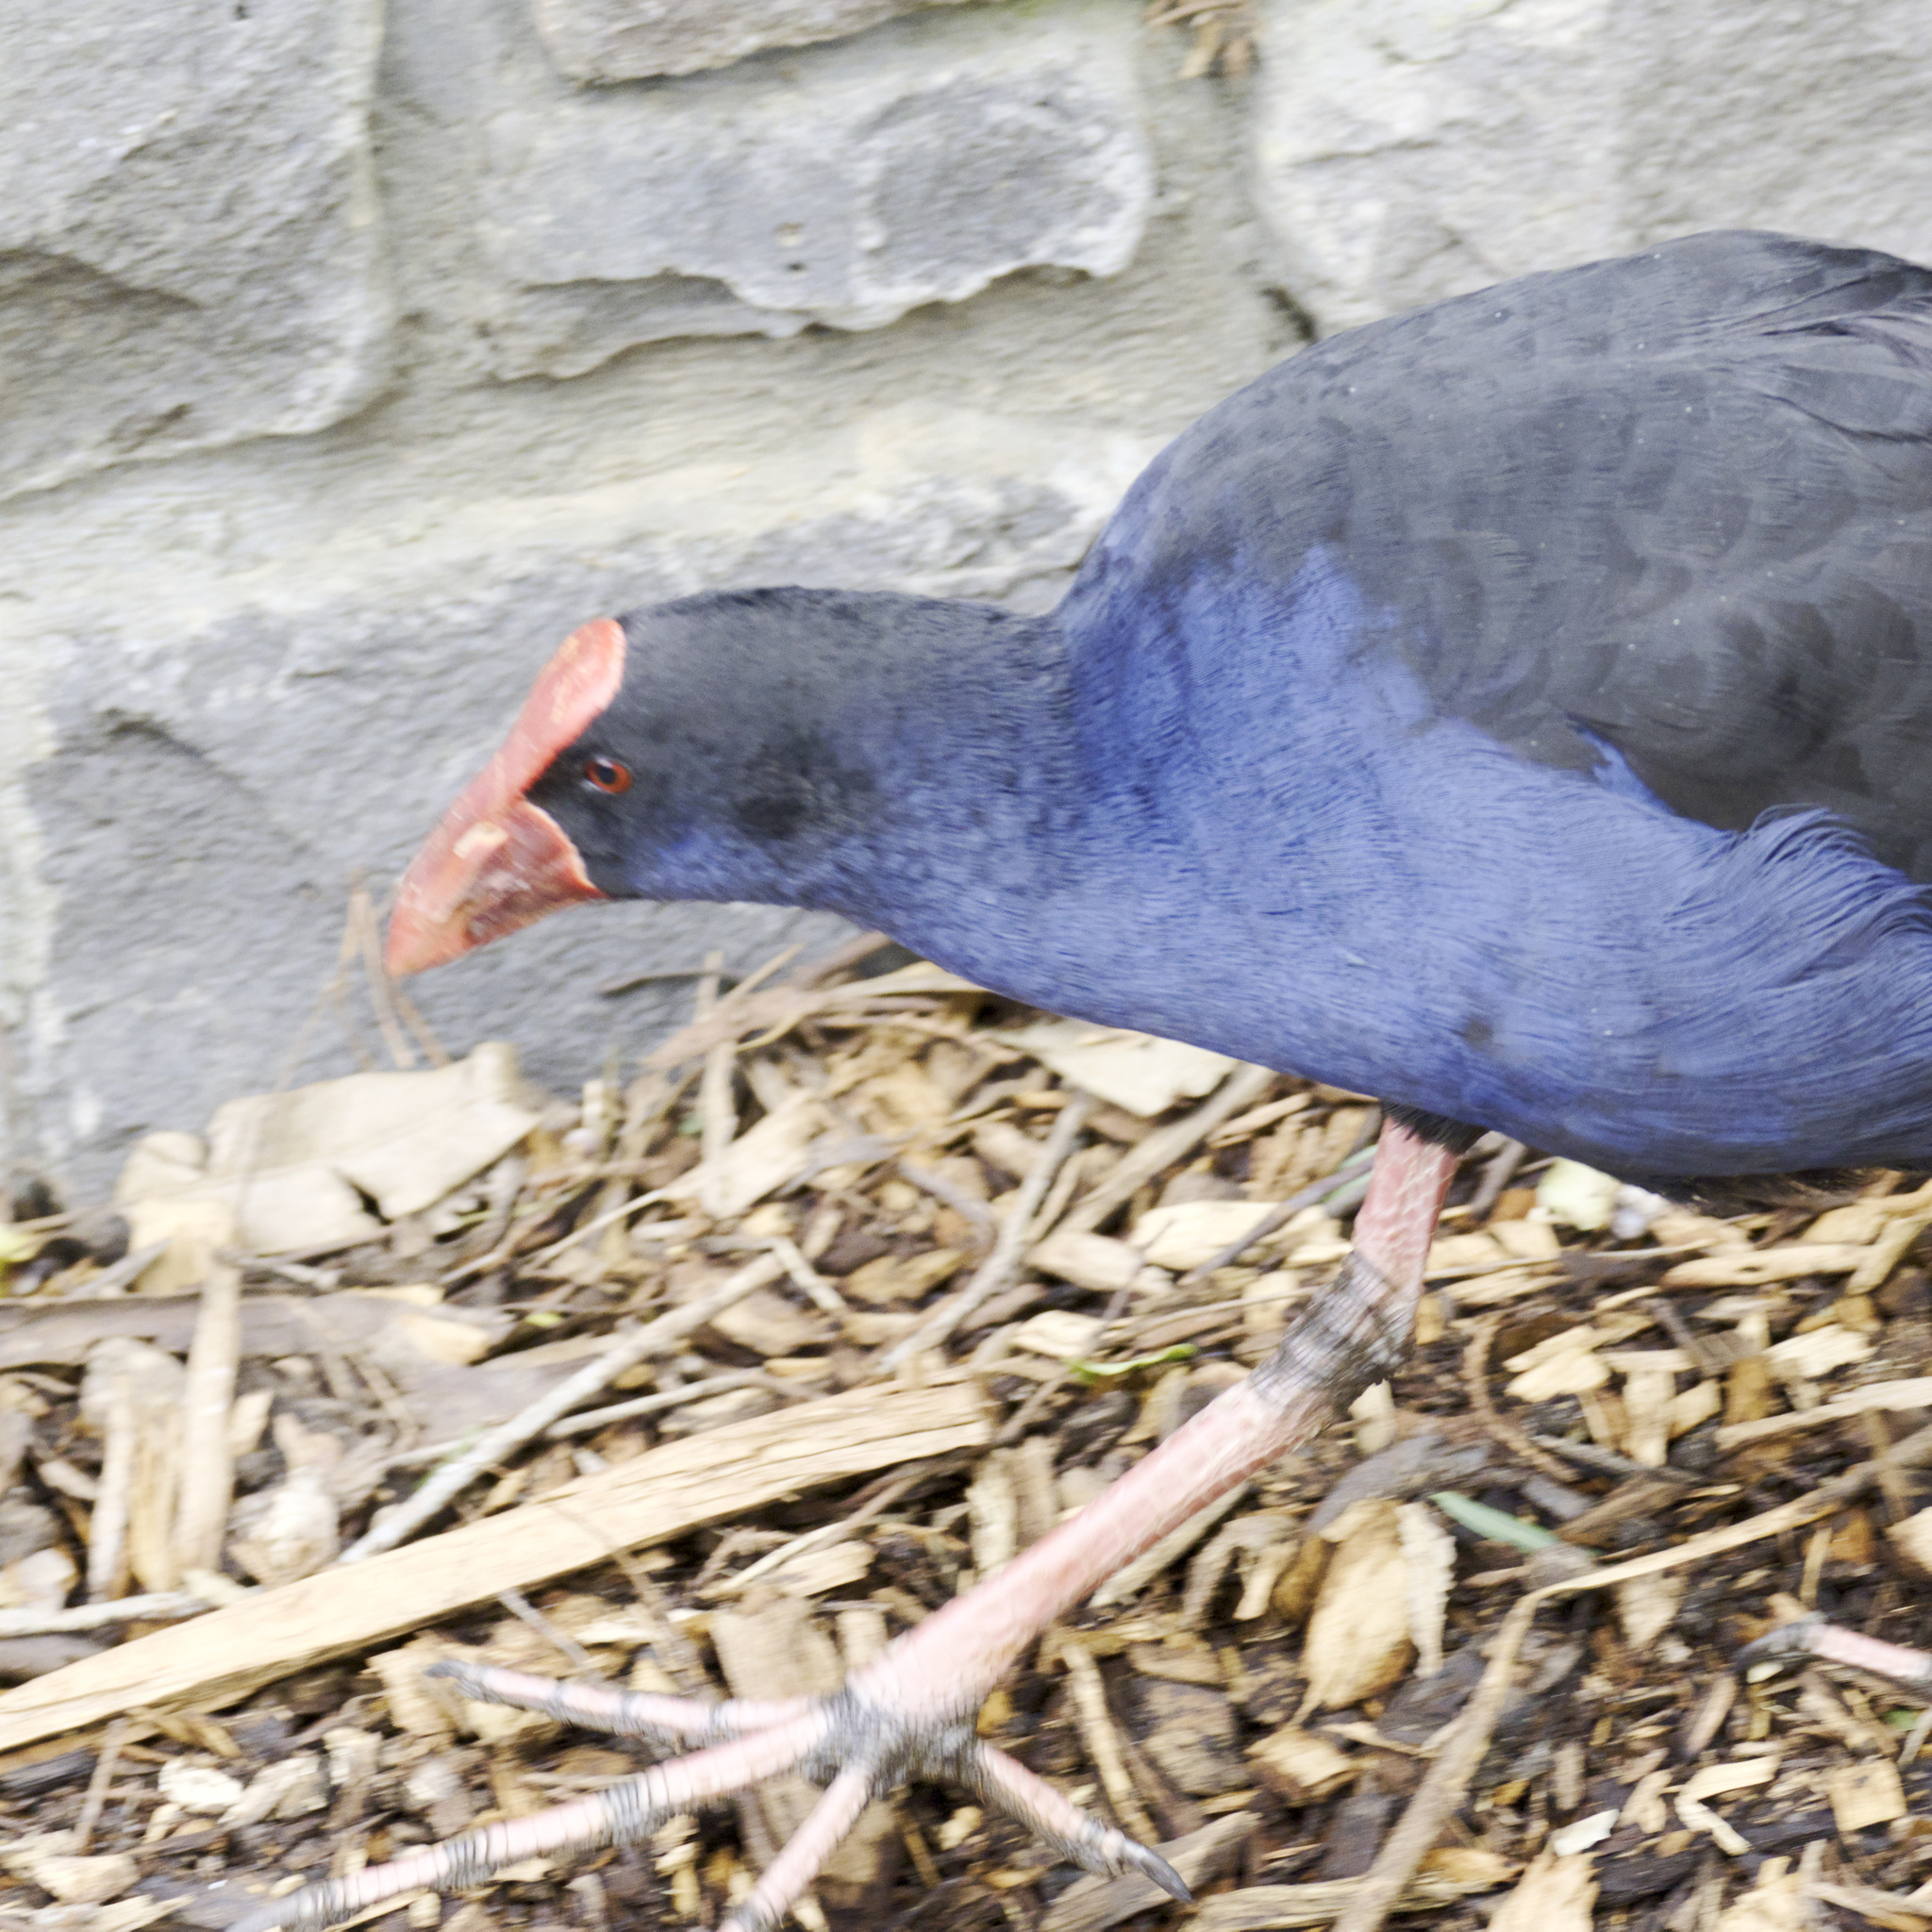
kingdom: Animalia
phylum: Chordata
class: Aves
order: Gruiformes
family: Rallidae
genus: Porphyrio
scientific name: Porphyrio melanotus
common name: Australasian swamphen
